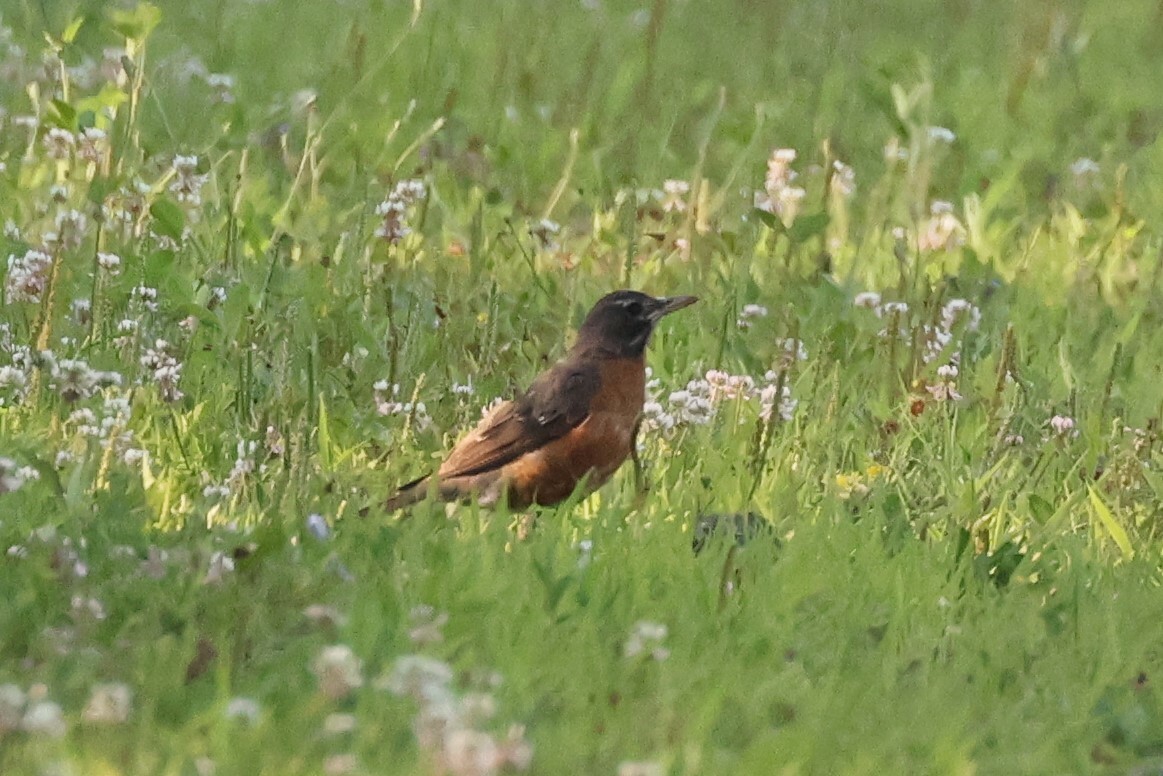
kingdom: Animalia
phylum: Chordata
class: Aves
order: Passeriformes
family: Turdidae
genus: Turdus
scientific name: Turdus migratorius
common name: American robin
